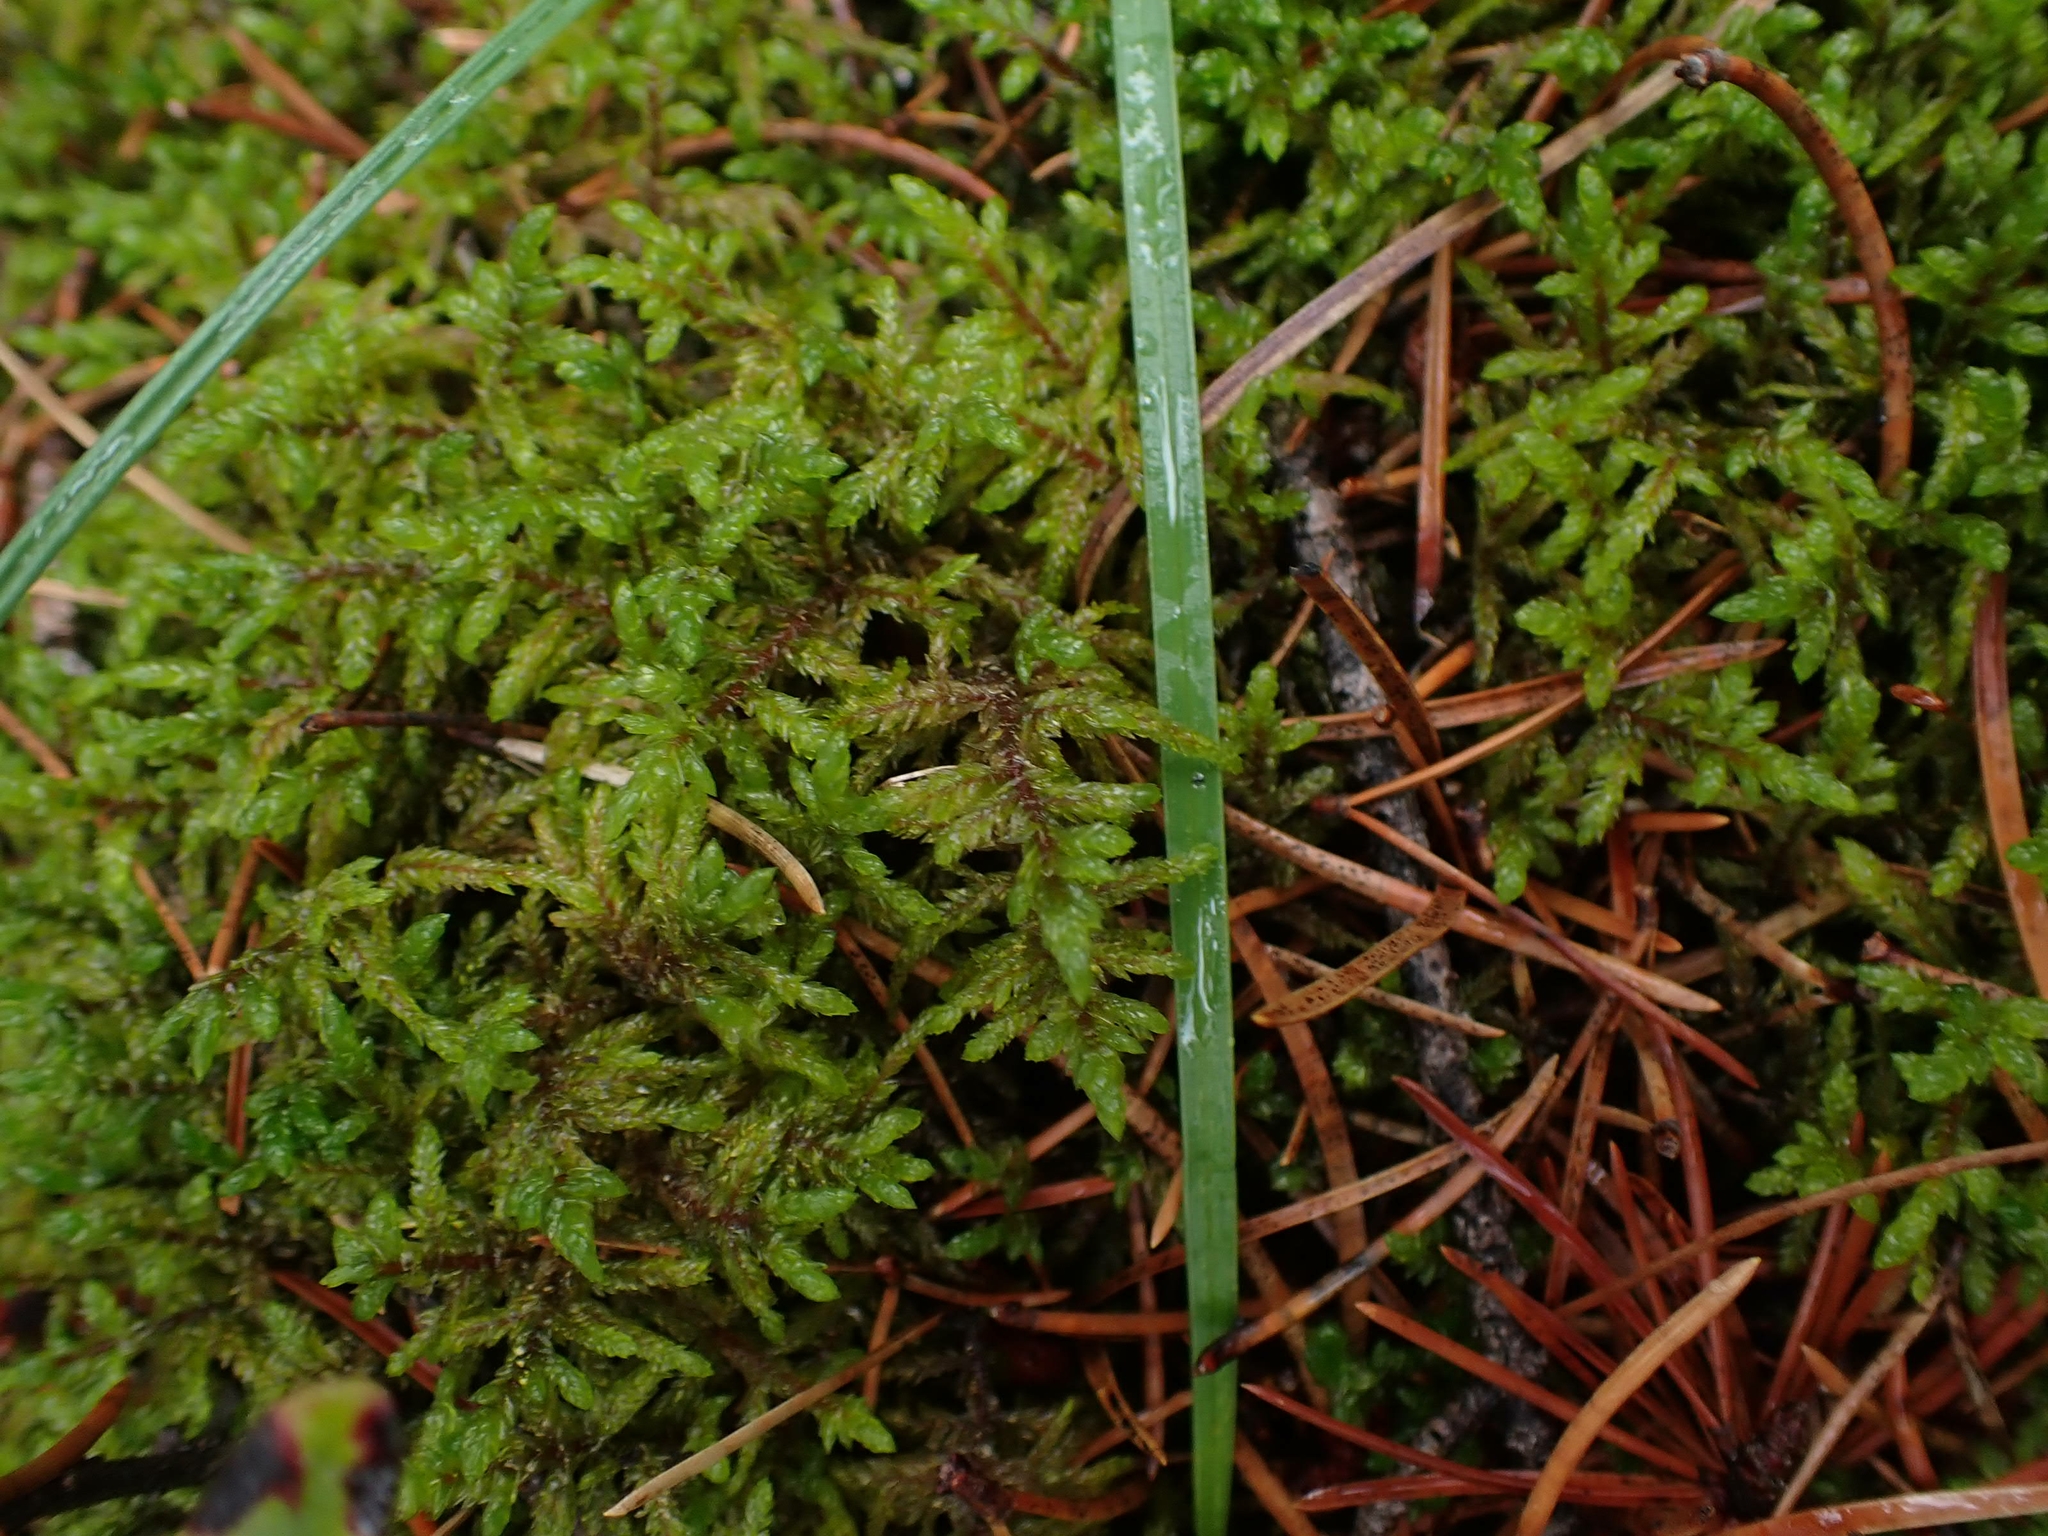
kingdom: Plantae
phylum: Bryophyta
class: Bryopsida
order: Hypnales
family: Hylocomiaceae
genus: Pleurozium
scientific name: Pleurozium schreberi
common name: Red-stemmed feather moss
